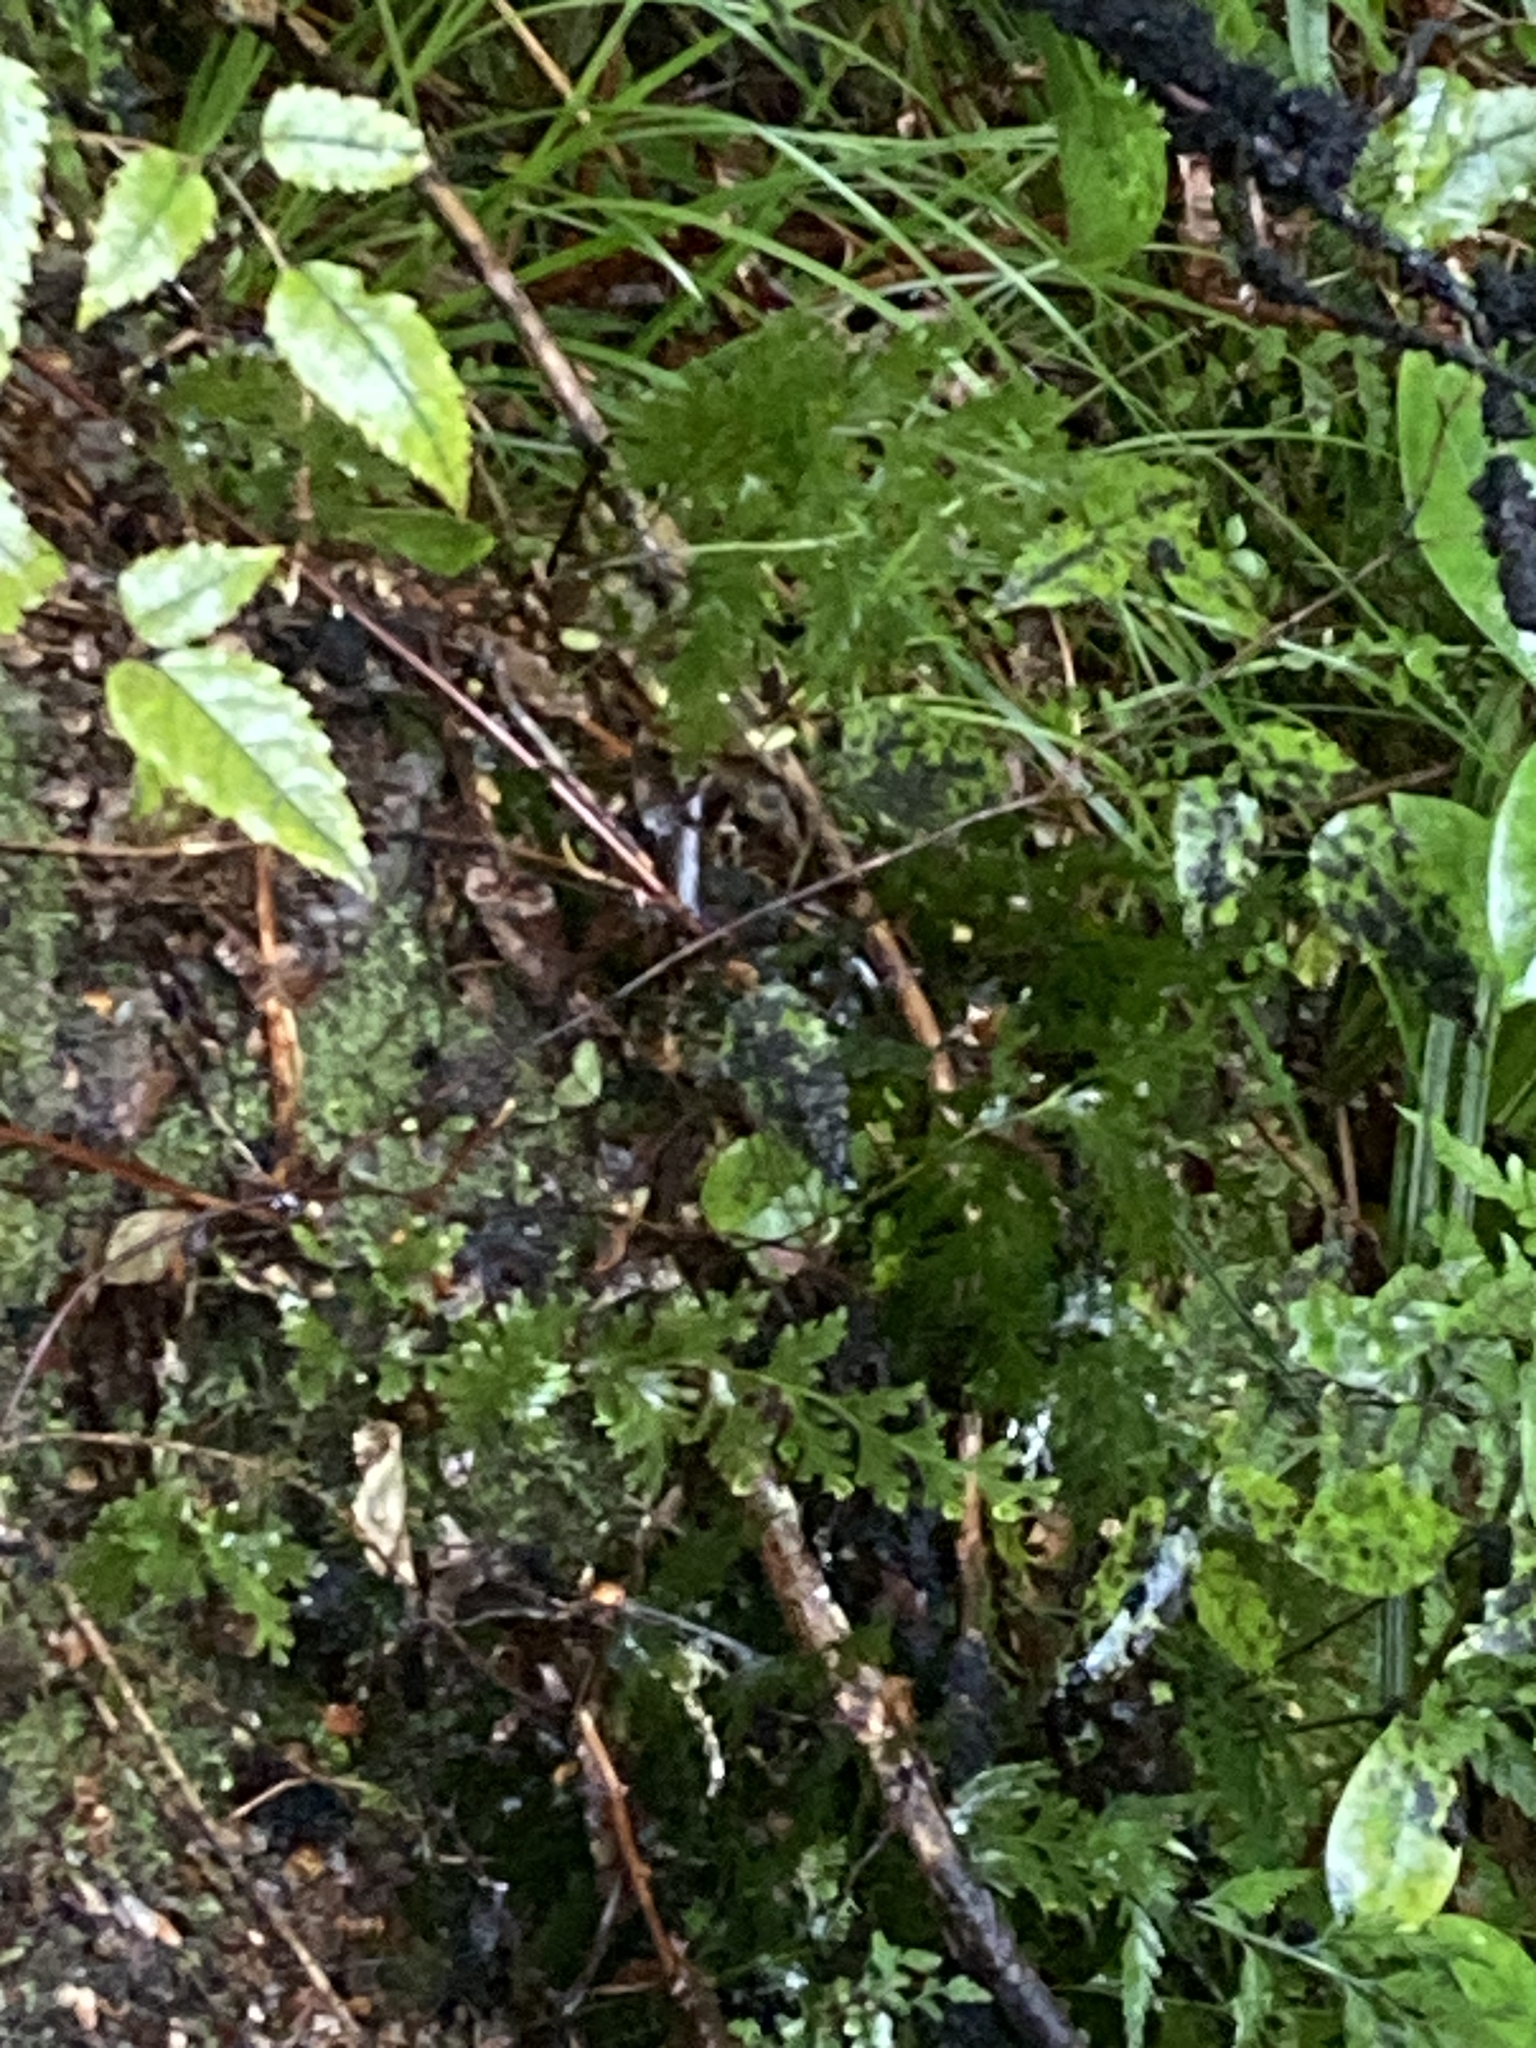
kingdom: Plantae
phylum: Tracheophyta
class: Polypodiopsida
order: Hymenophyllales
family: Hymenophyllaceae
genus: Hymenophyllum
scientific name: Hymenophyllum dilatatum
